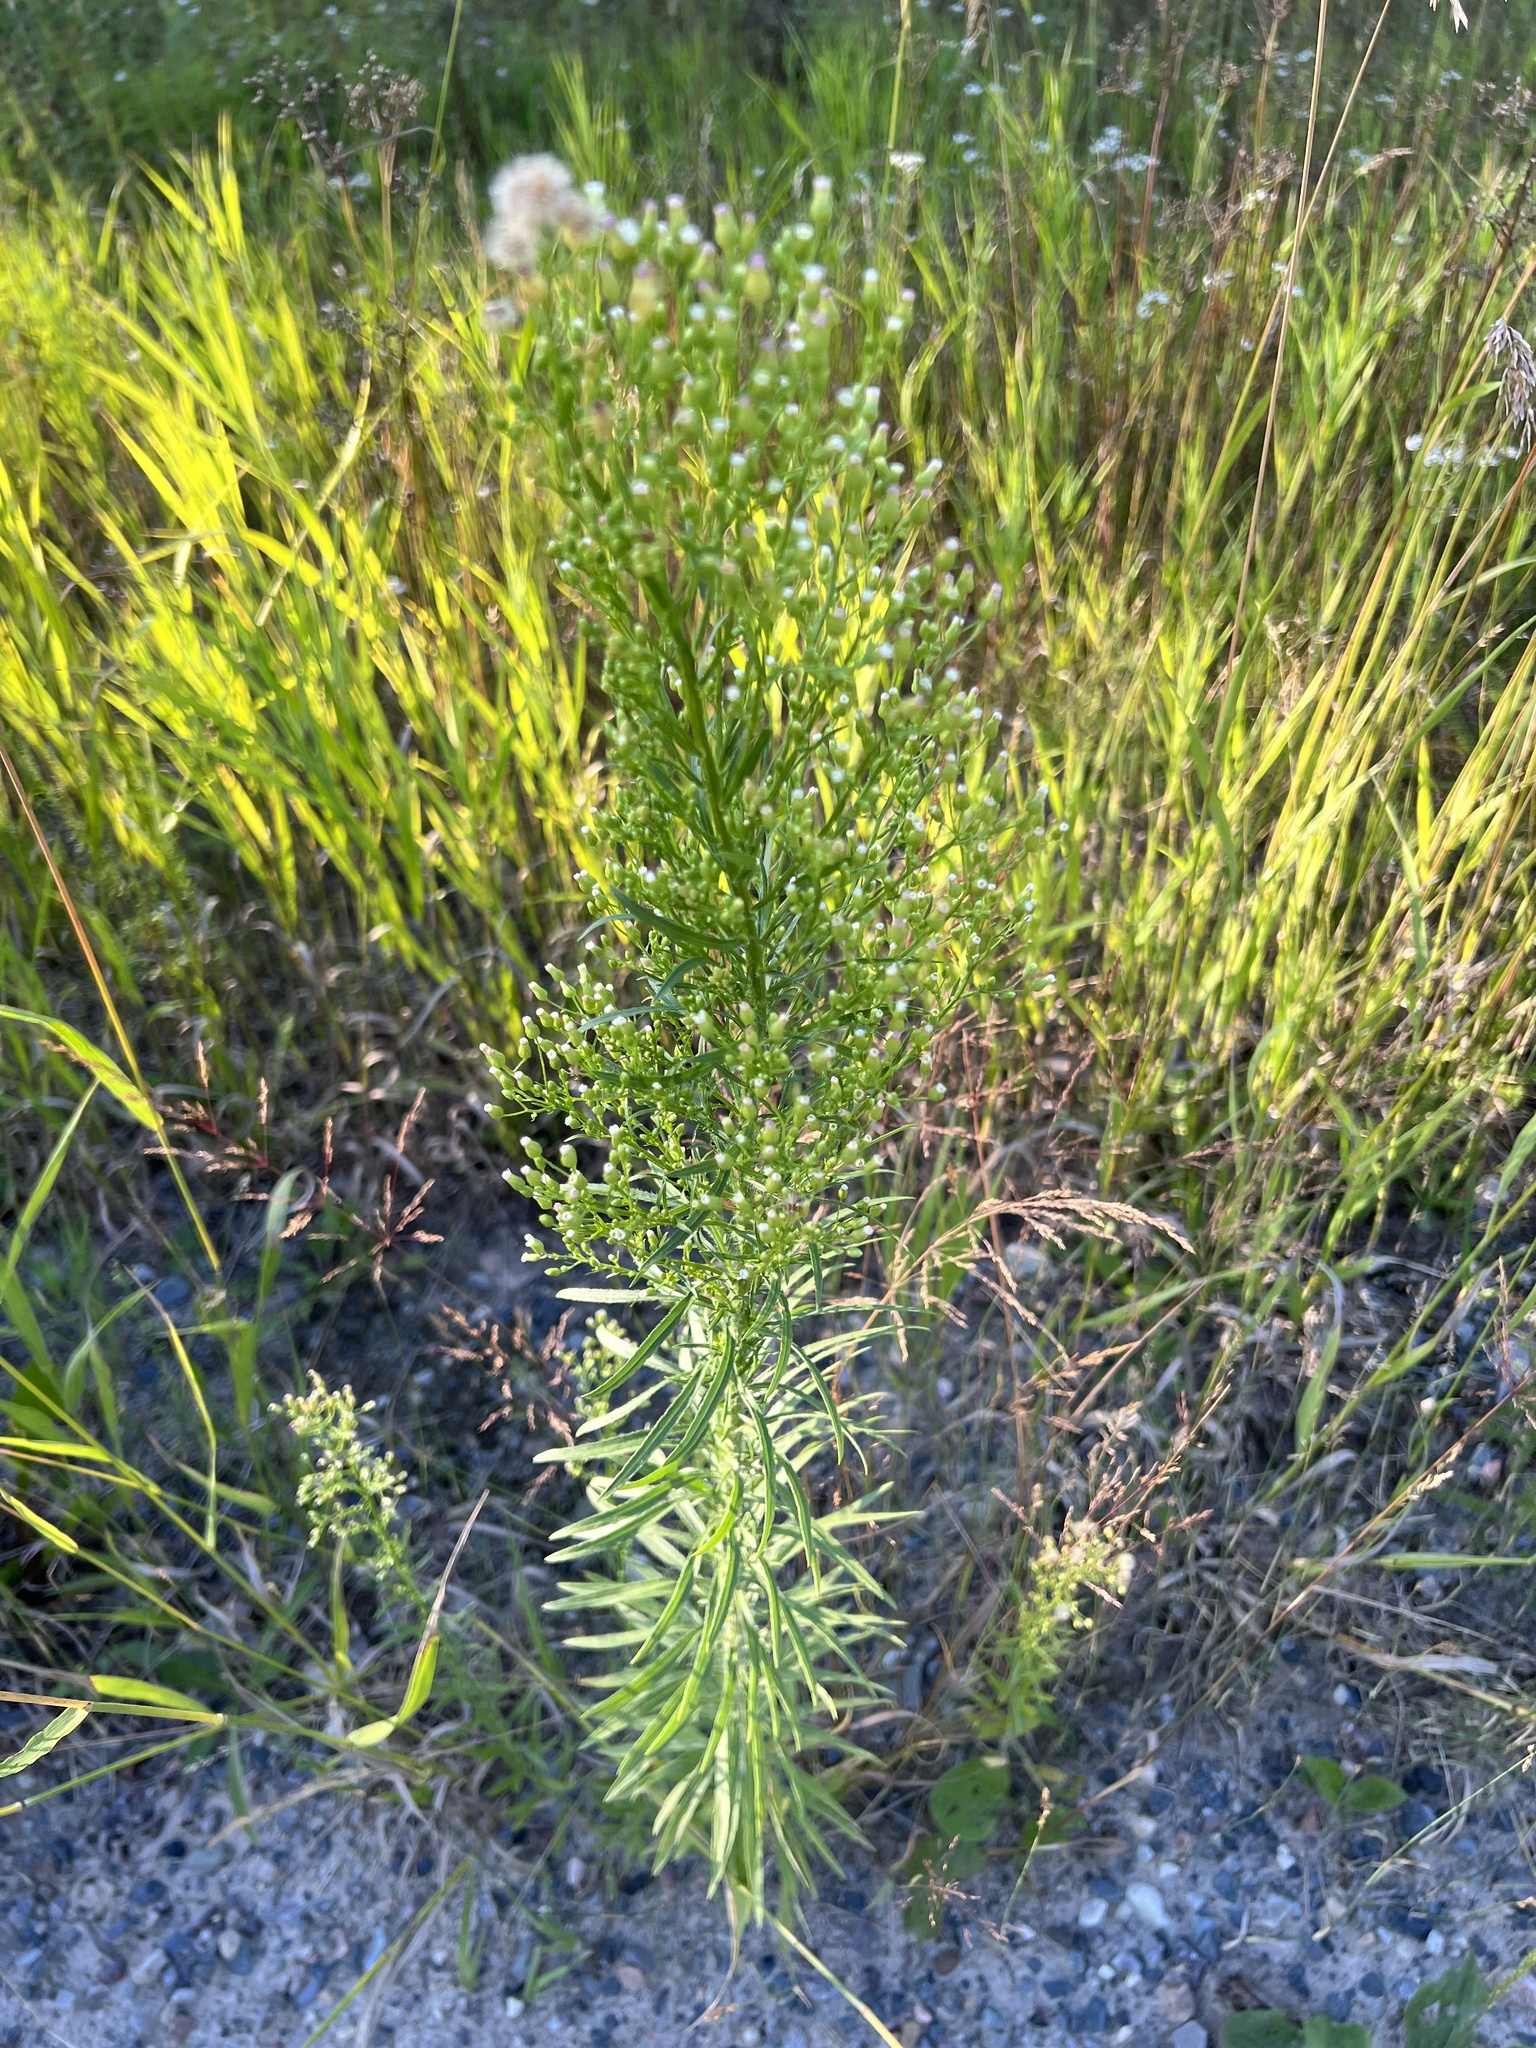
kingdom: Plantae
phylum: Tracheophyta
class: Magnoliopsida
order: Asterales
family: Asteraceae
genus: Erigeron
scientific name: Erigeron canadensis
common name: Canadian fleabane
